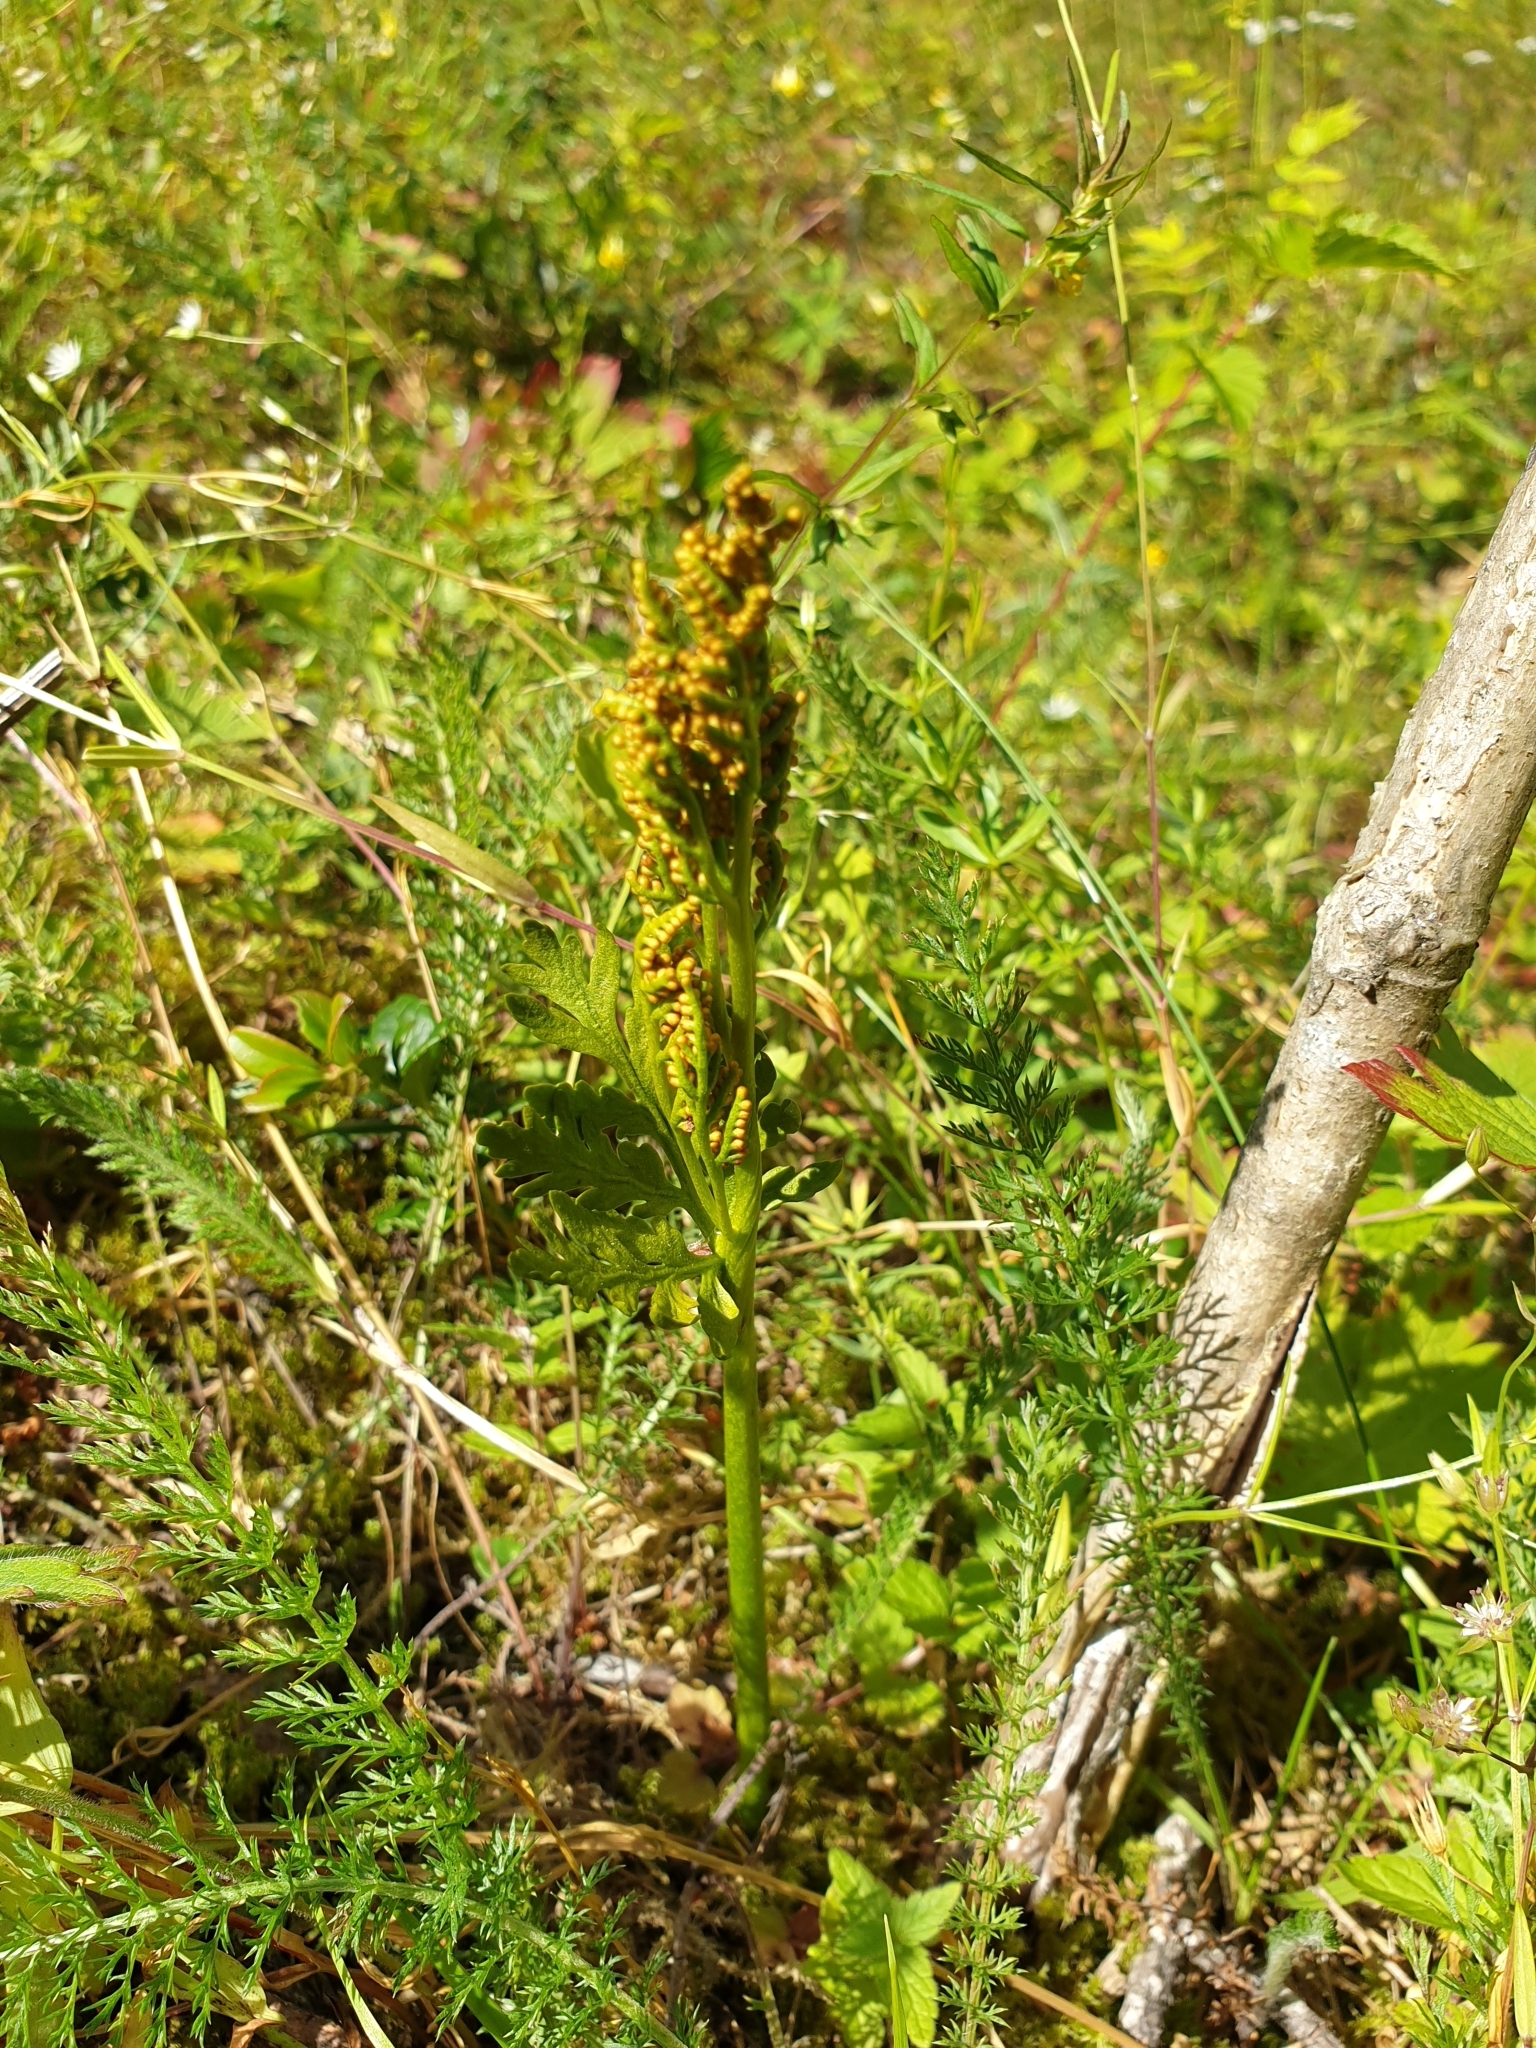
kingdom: Plantae
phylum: Tracheophyta
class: Polypodiopsida
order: Ophioglossales
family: Ophioglossaceae
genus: Botrychium
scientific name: Botrychium lanceolatum
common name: Lance-leaved moonwort
